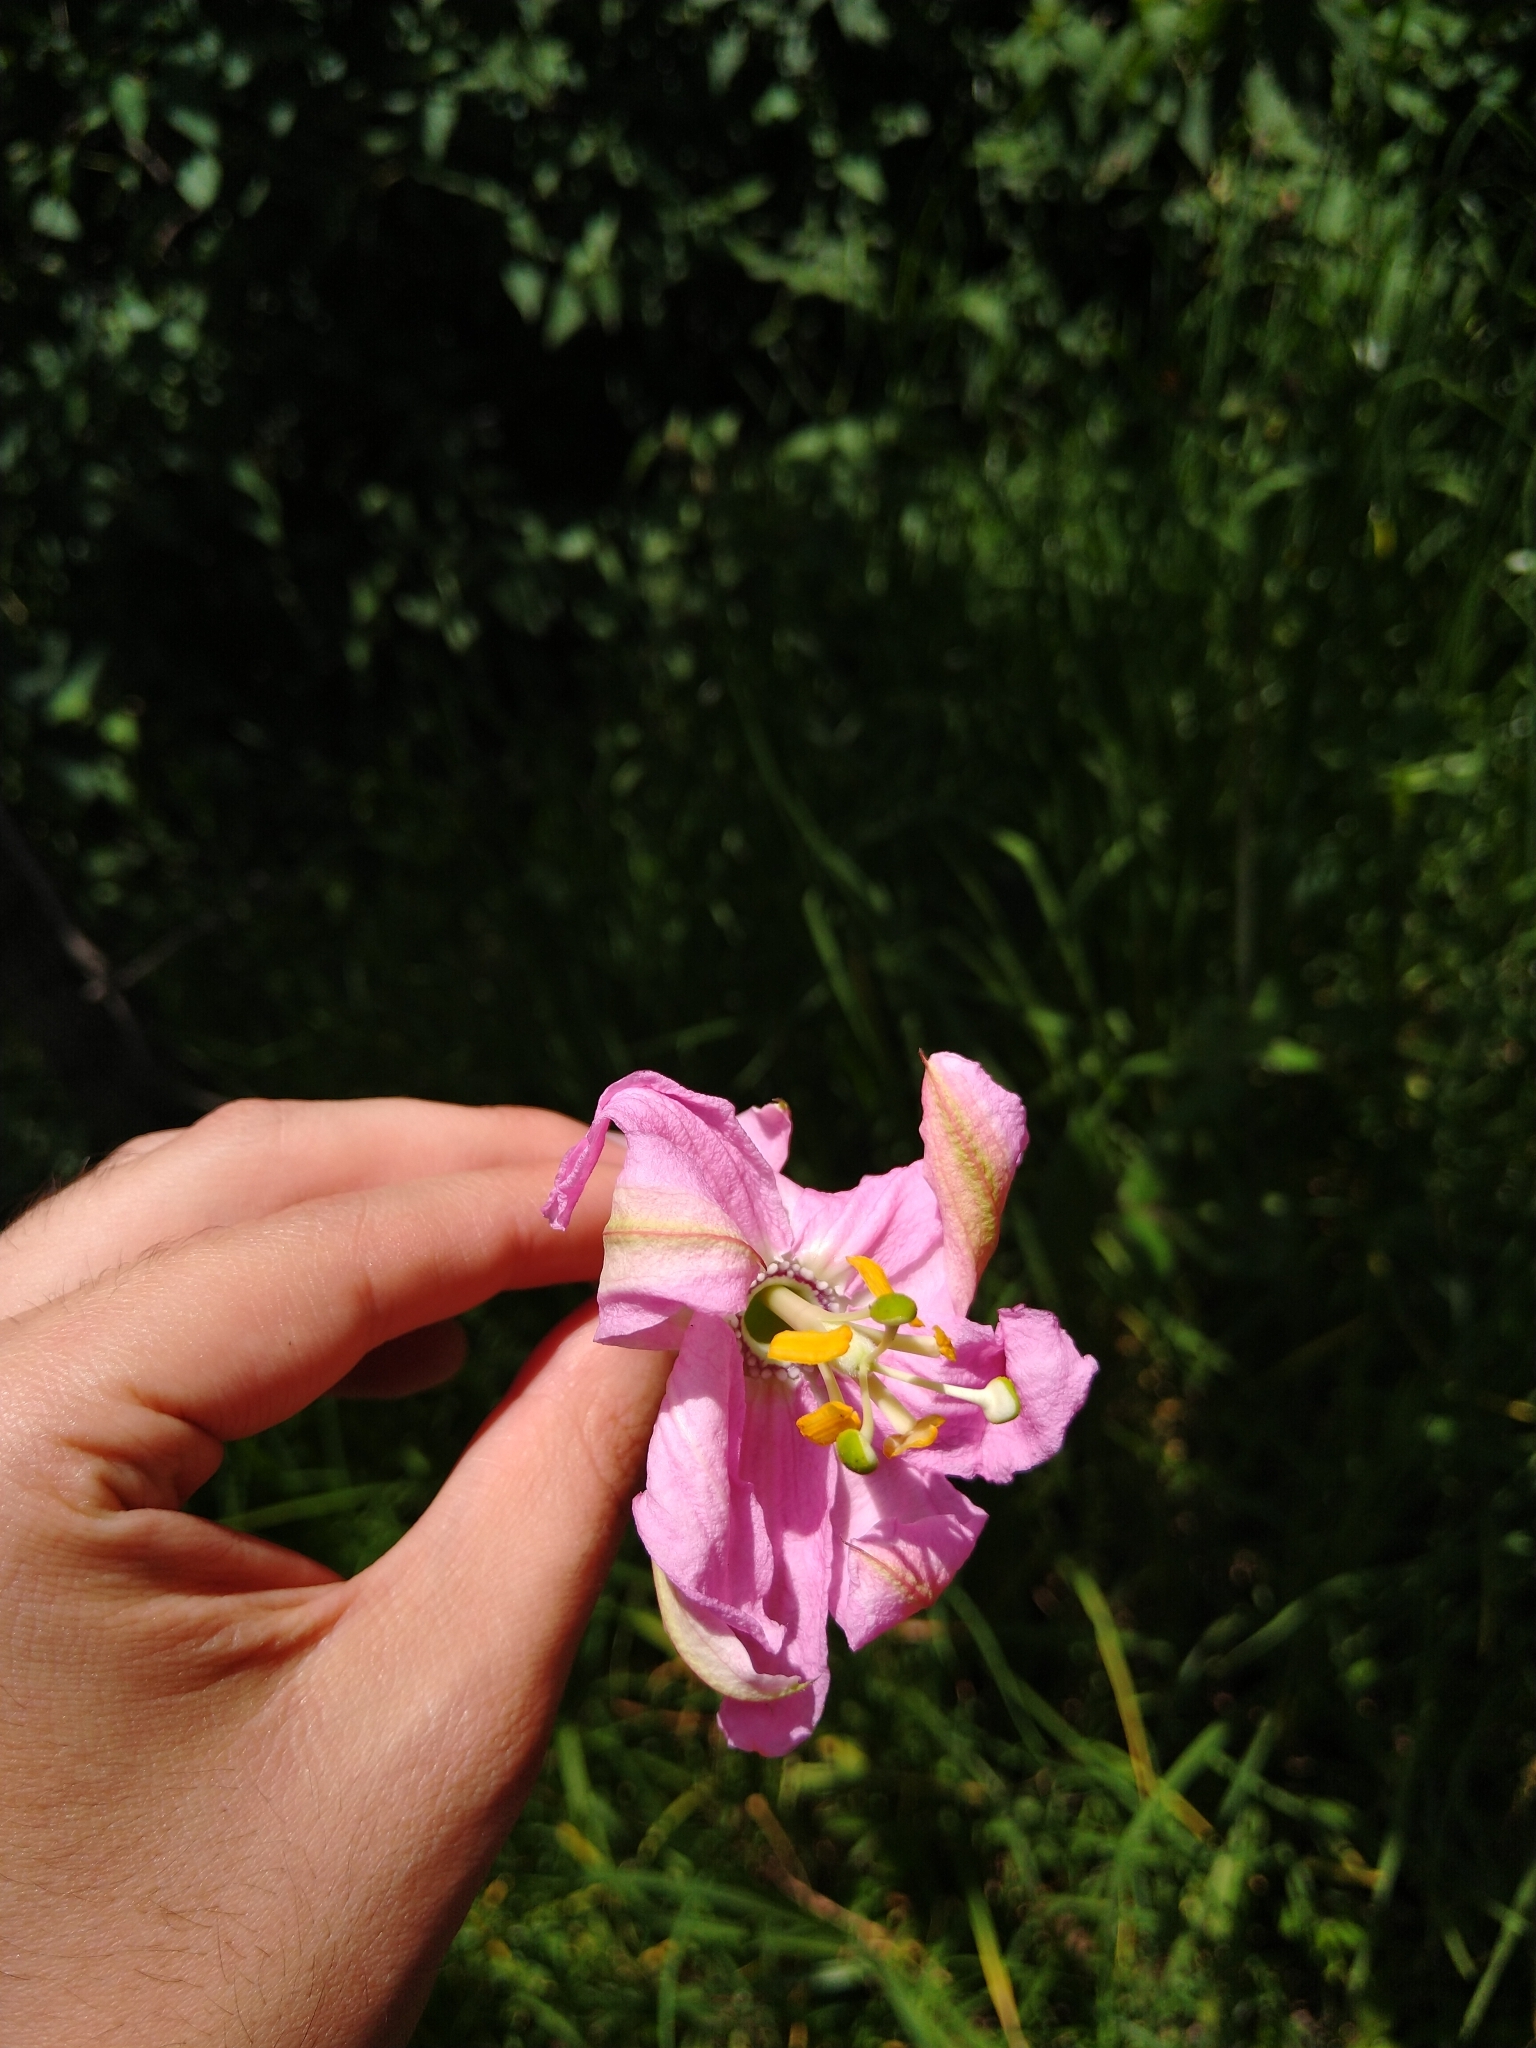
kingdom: Plantae
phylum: Tracheophyta
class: Magnoliopsida
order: Malpighiales
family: Passifloraceae
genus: Passiflora
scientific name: Passiflora tarminiana
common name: Banana poka
